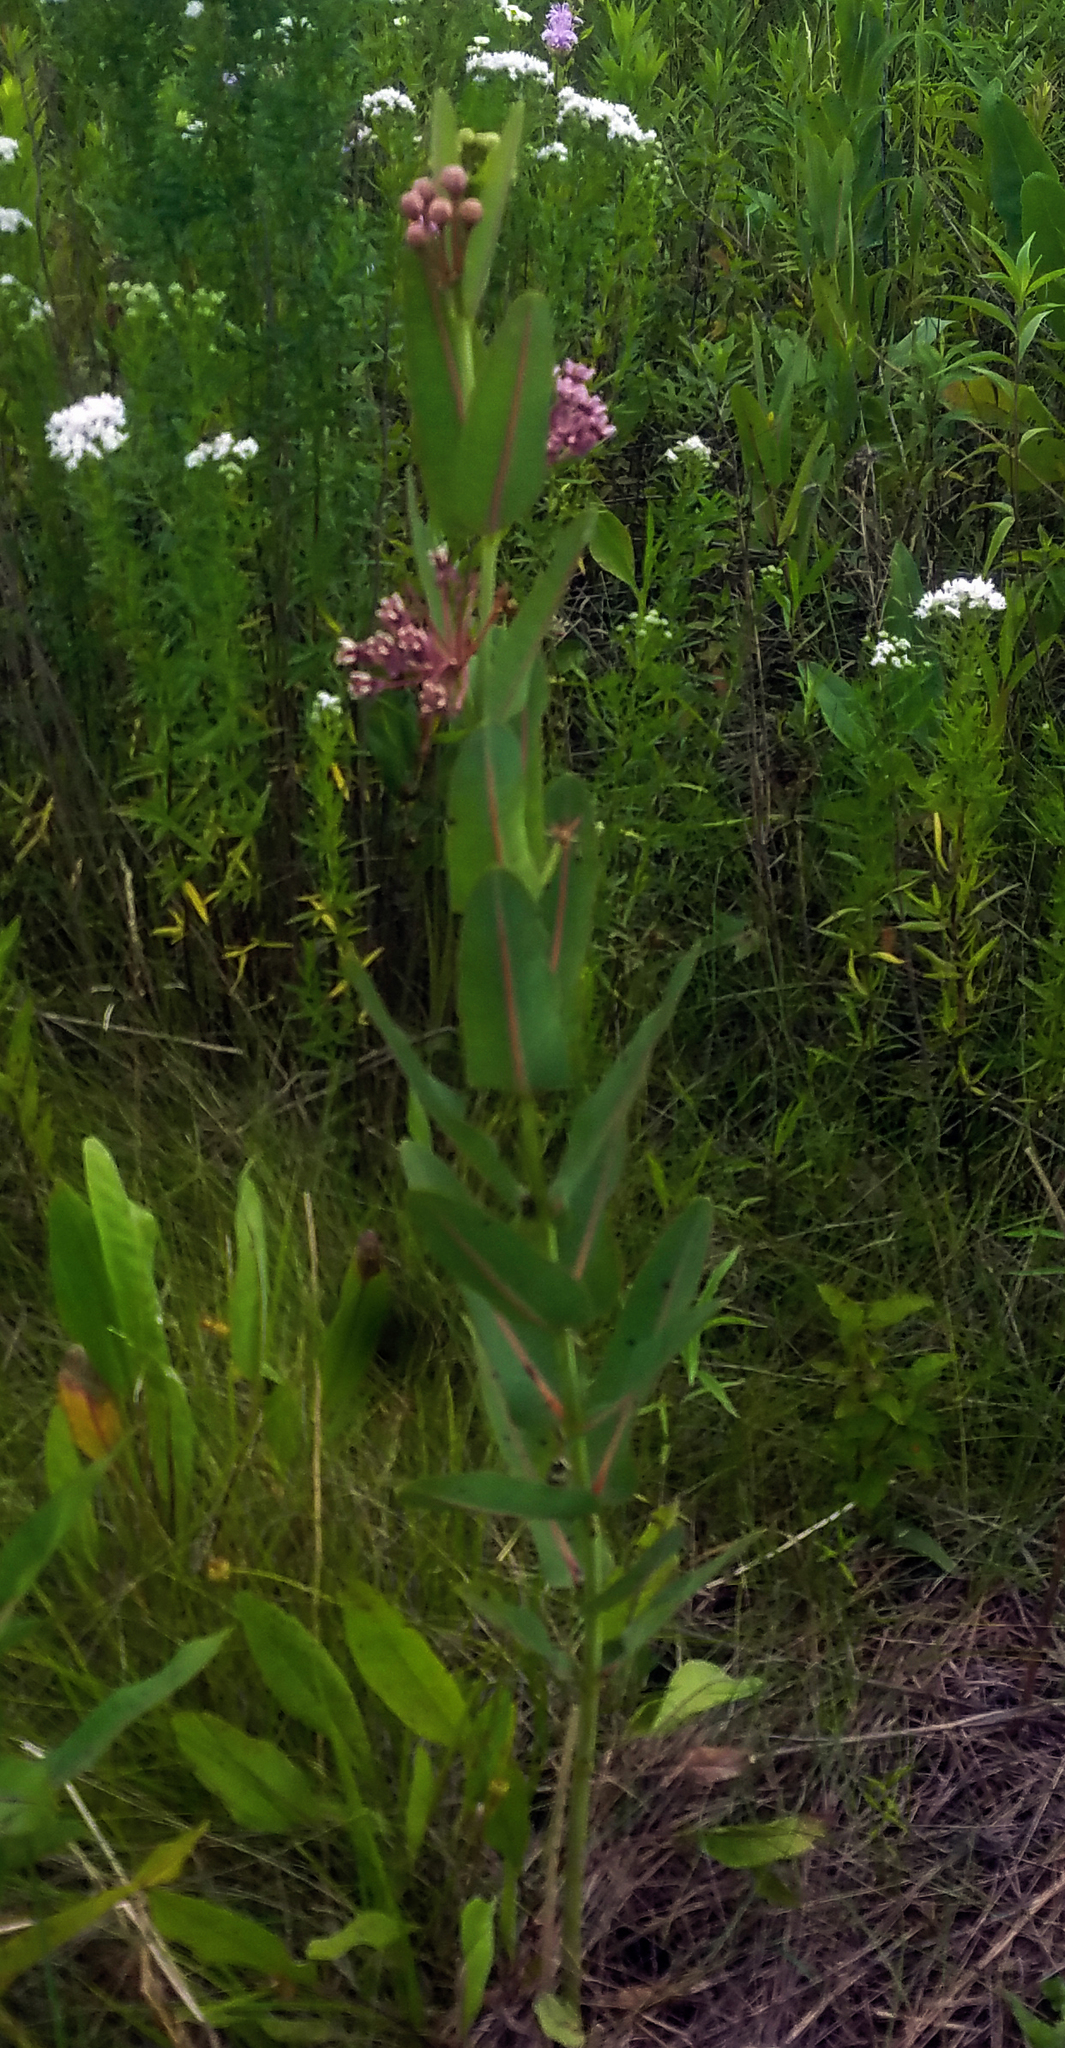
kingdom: Plantae
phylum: Tracheophyta
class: Magnoliopsida
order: Gentianales
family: Apocynaceae
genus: Asclepias
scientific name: Asclepias sullivantii
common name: Prairie milkweed
